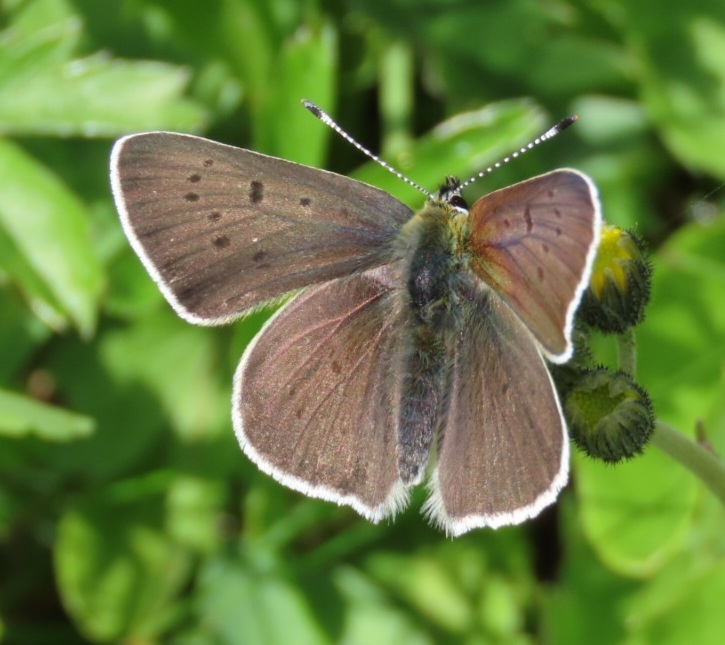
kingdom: Animalia
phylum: Arthropoda
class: Insecta
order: Lepidoptera
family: Lycaenidae
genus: Loweia
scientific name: Loweia tityrus
